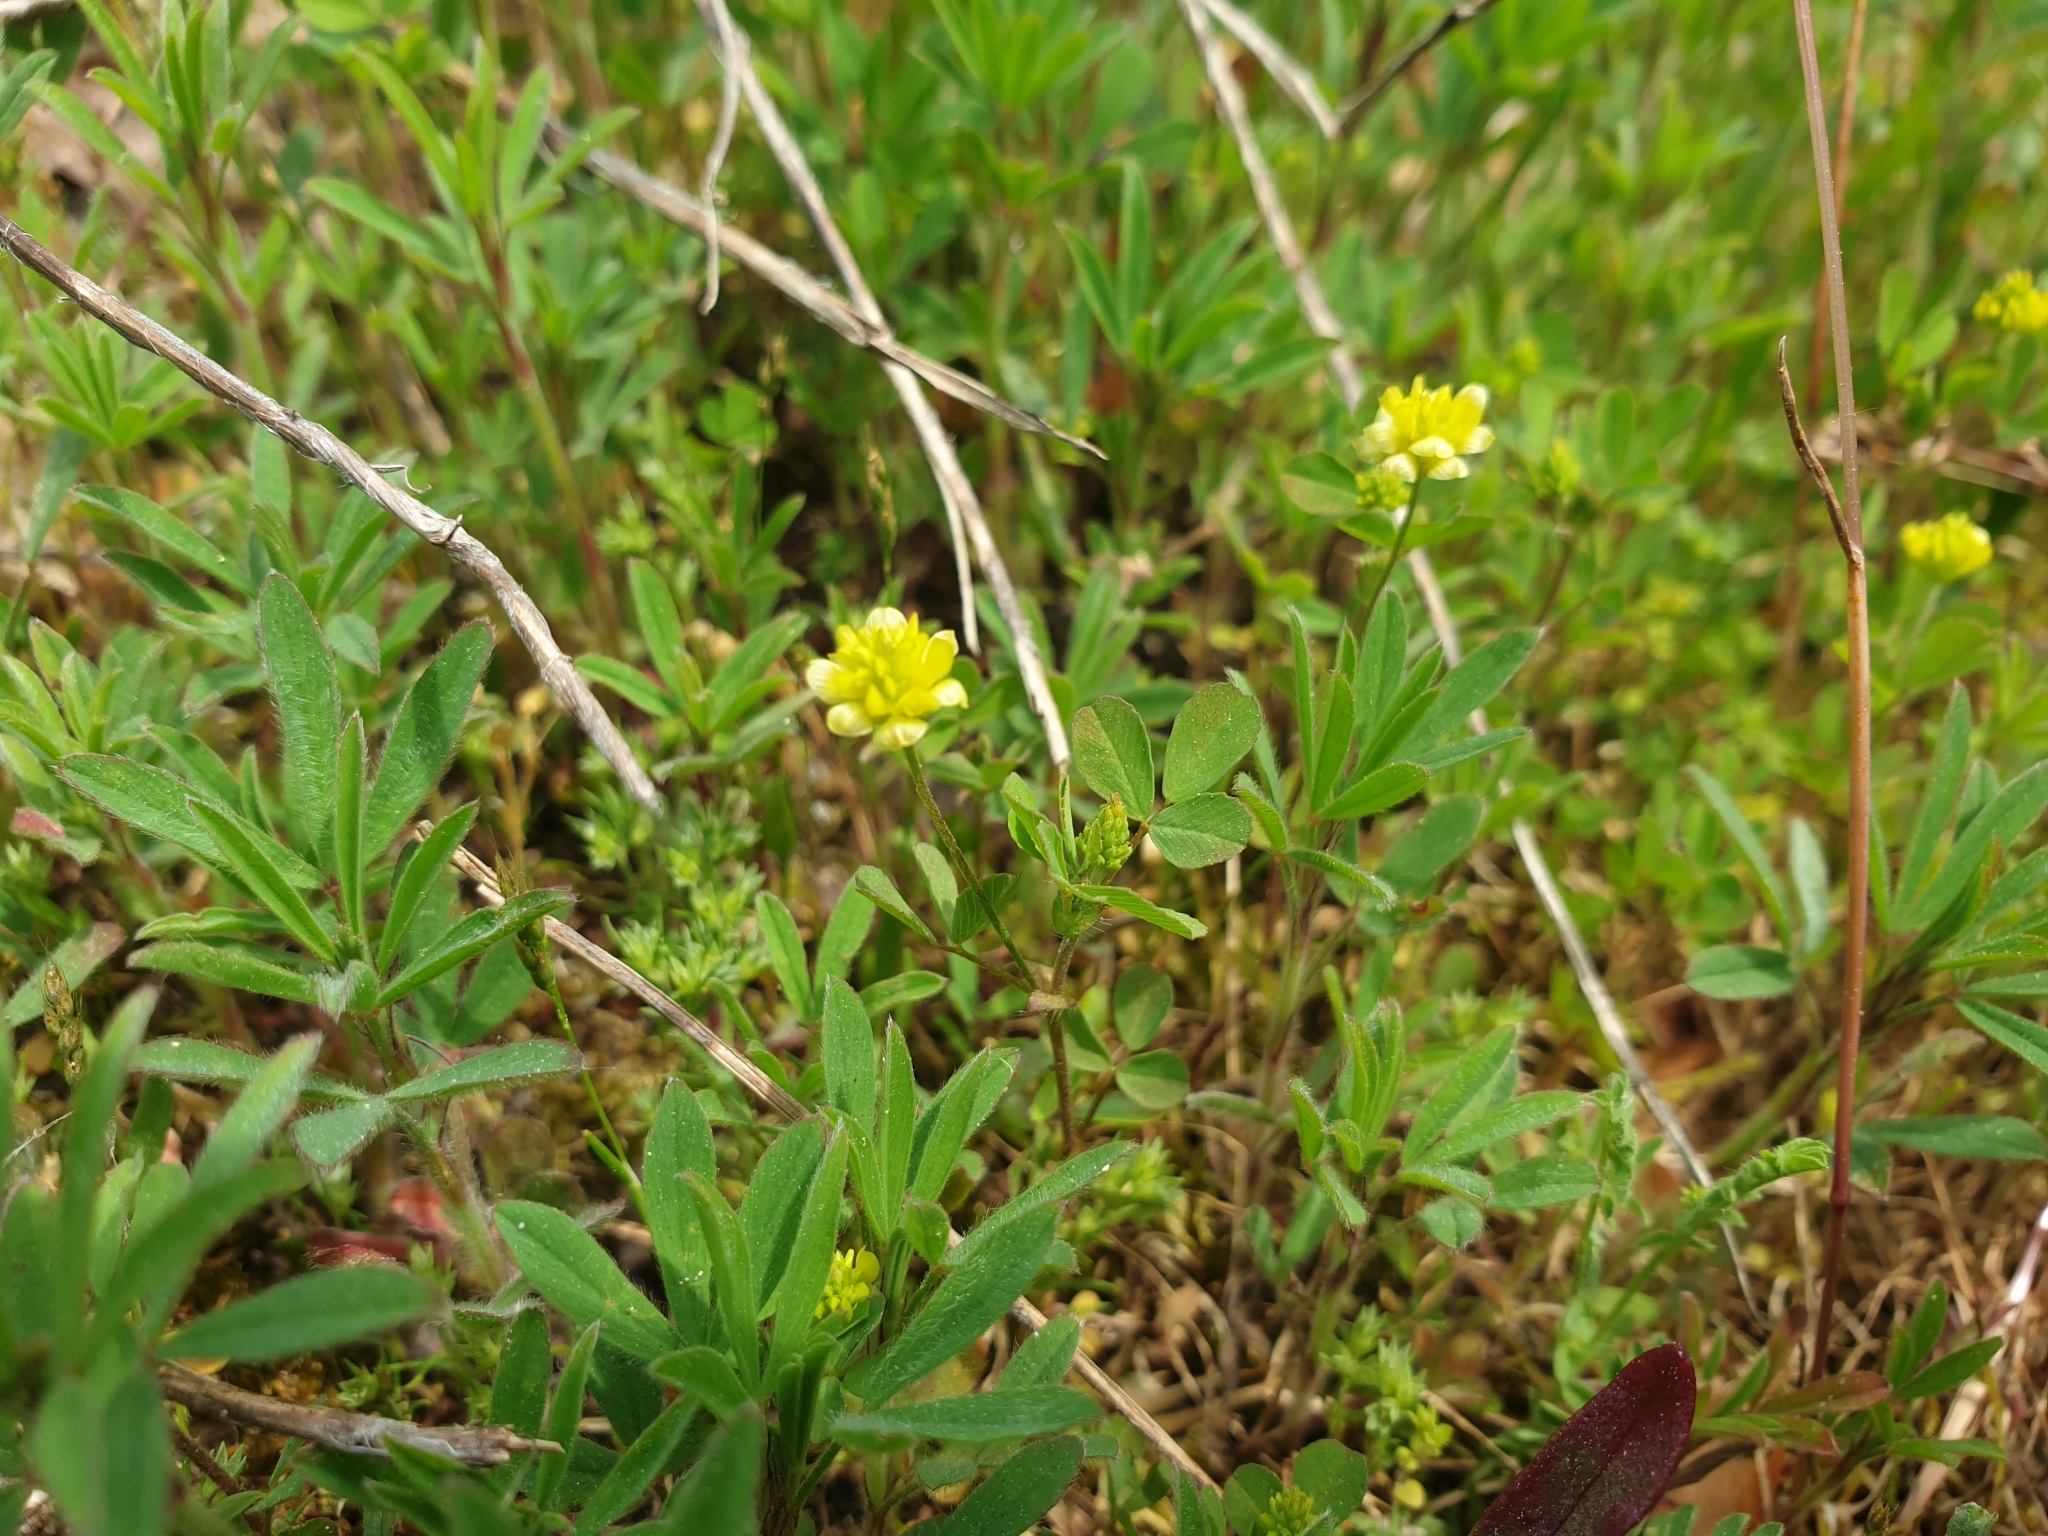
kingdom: Plantae
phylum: Tracheophyta
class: Magnoliopsida
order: Fabales
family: Fabaceae
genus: Trifolium
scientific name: Trifolium campestre
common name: Field clover
